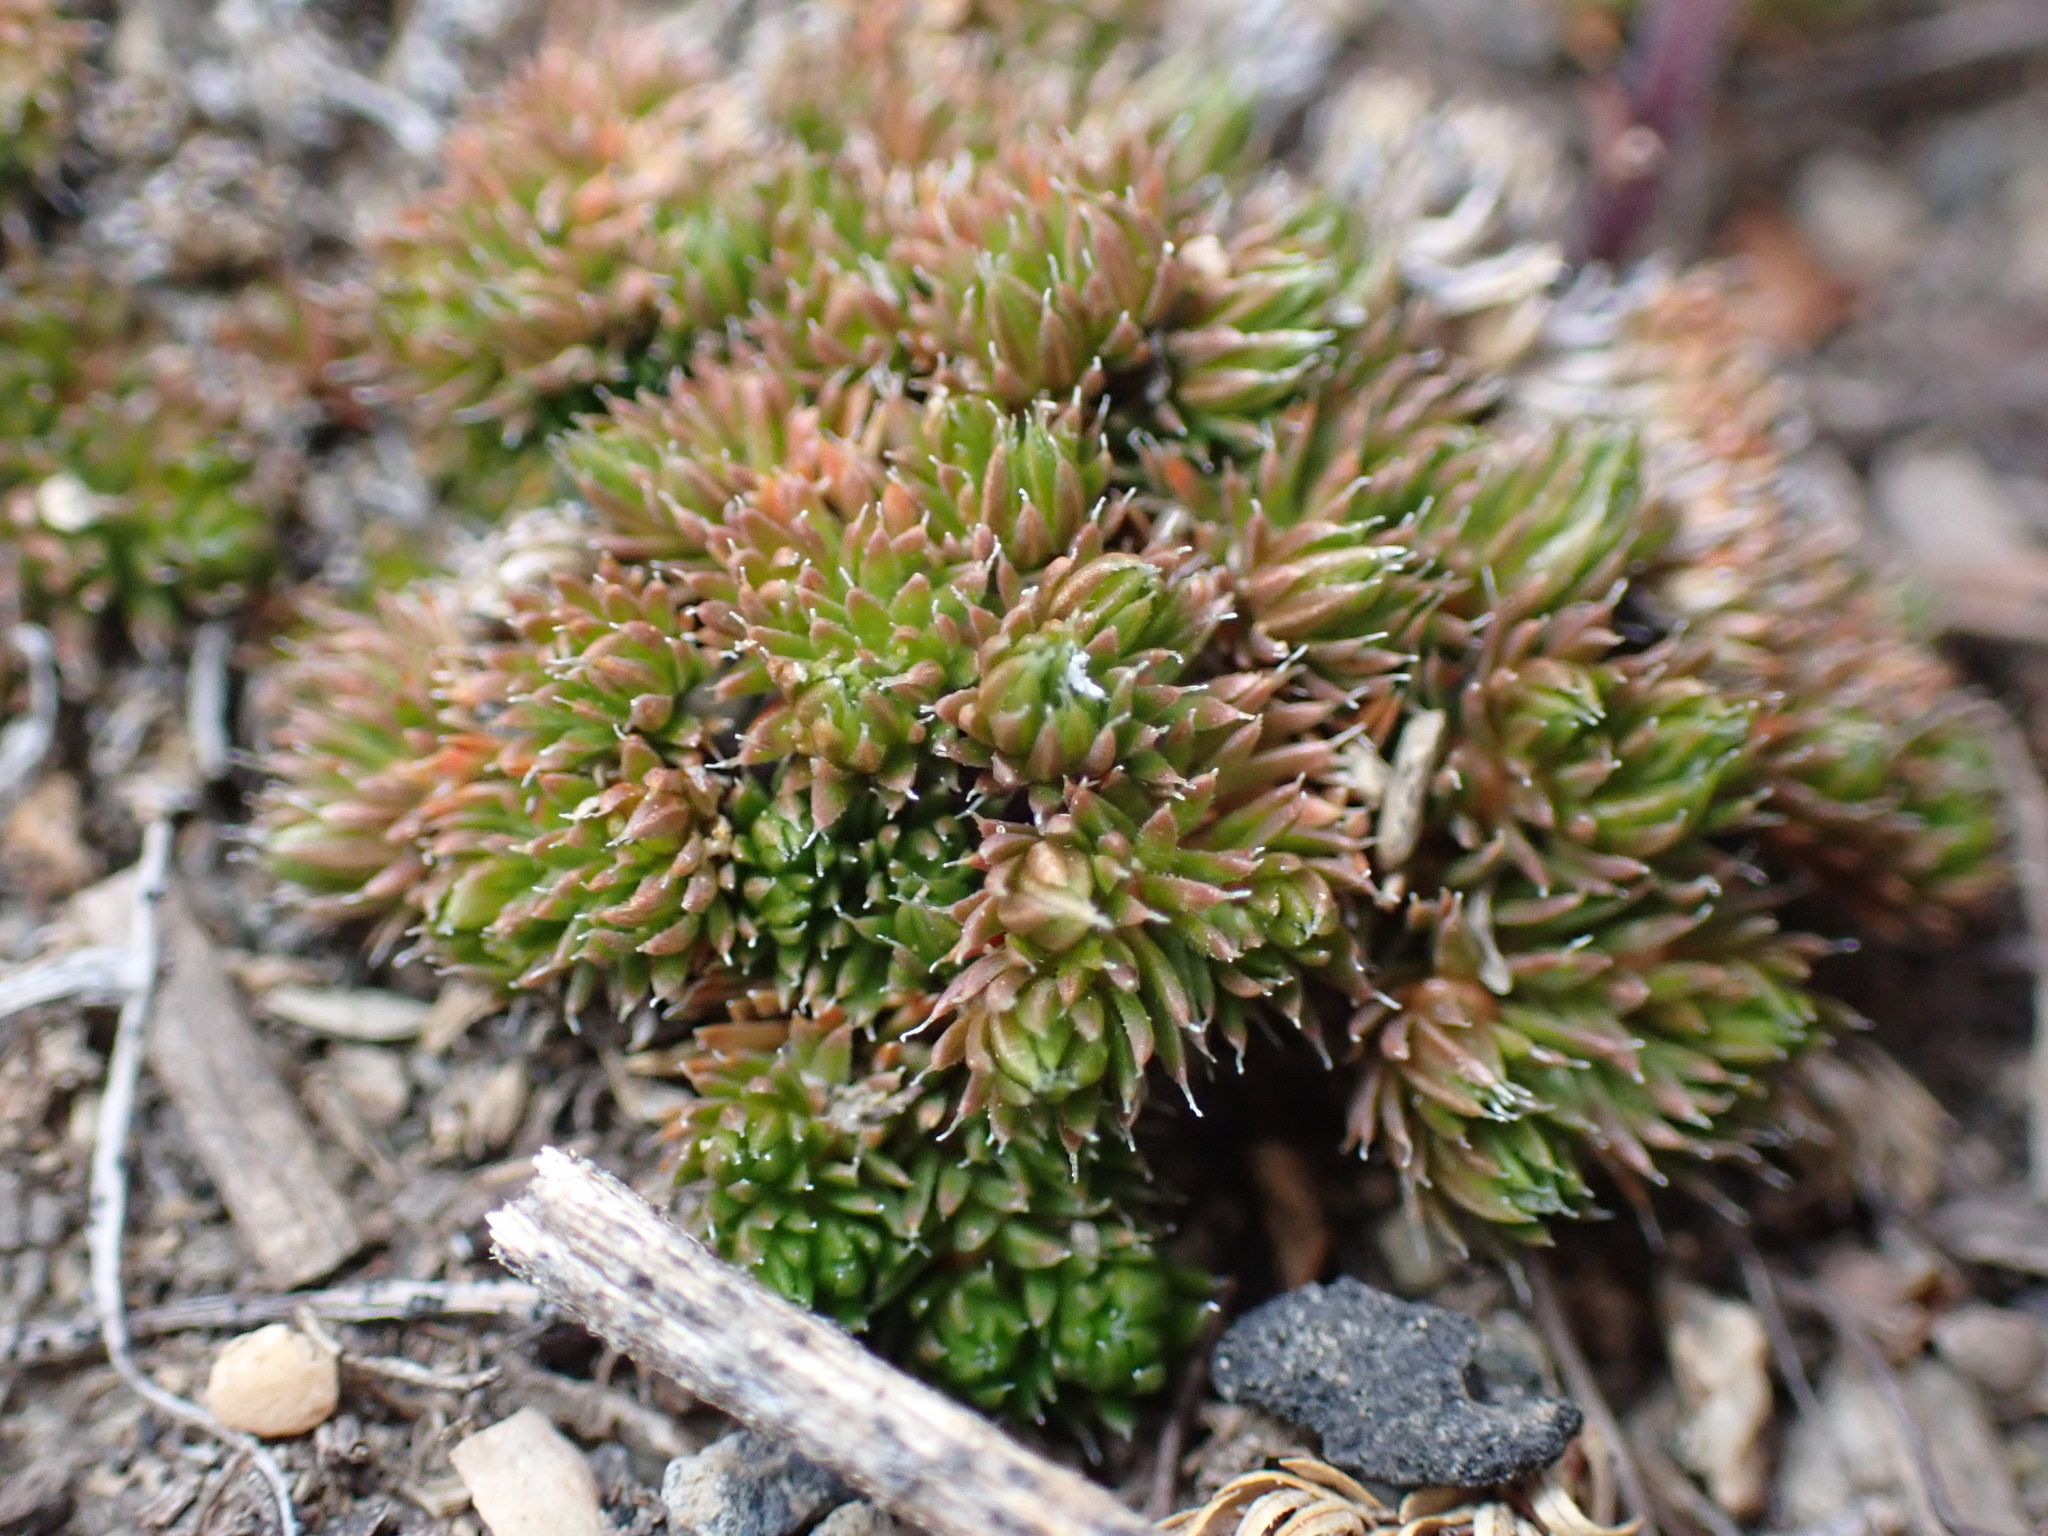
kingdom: Plantae
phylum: Tracheophyta
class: Lycopodiopsida
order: Selaginellales
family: Selaginellaceae
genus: Selaginella
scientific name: Selaginella densa
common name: Mountain spike-moss
